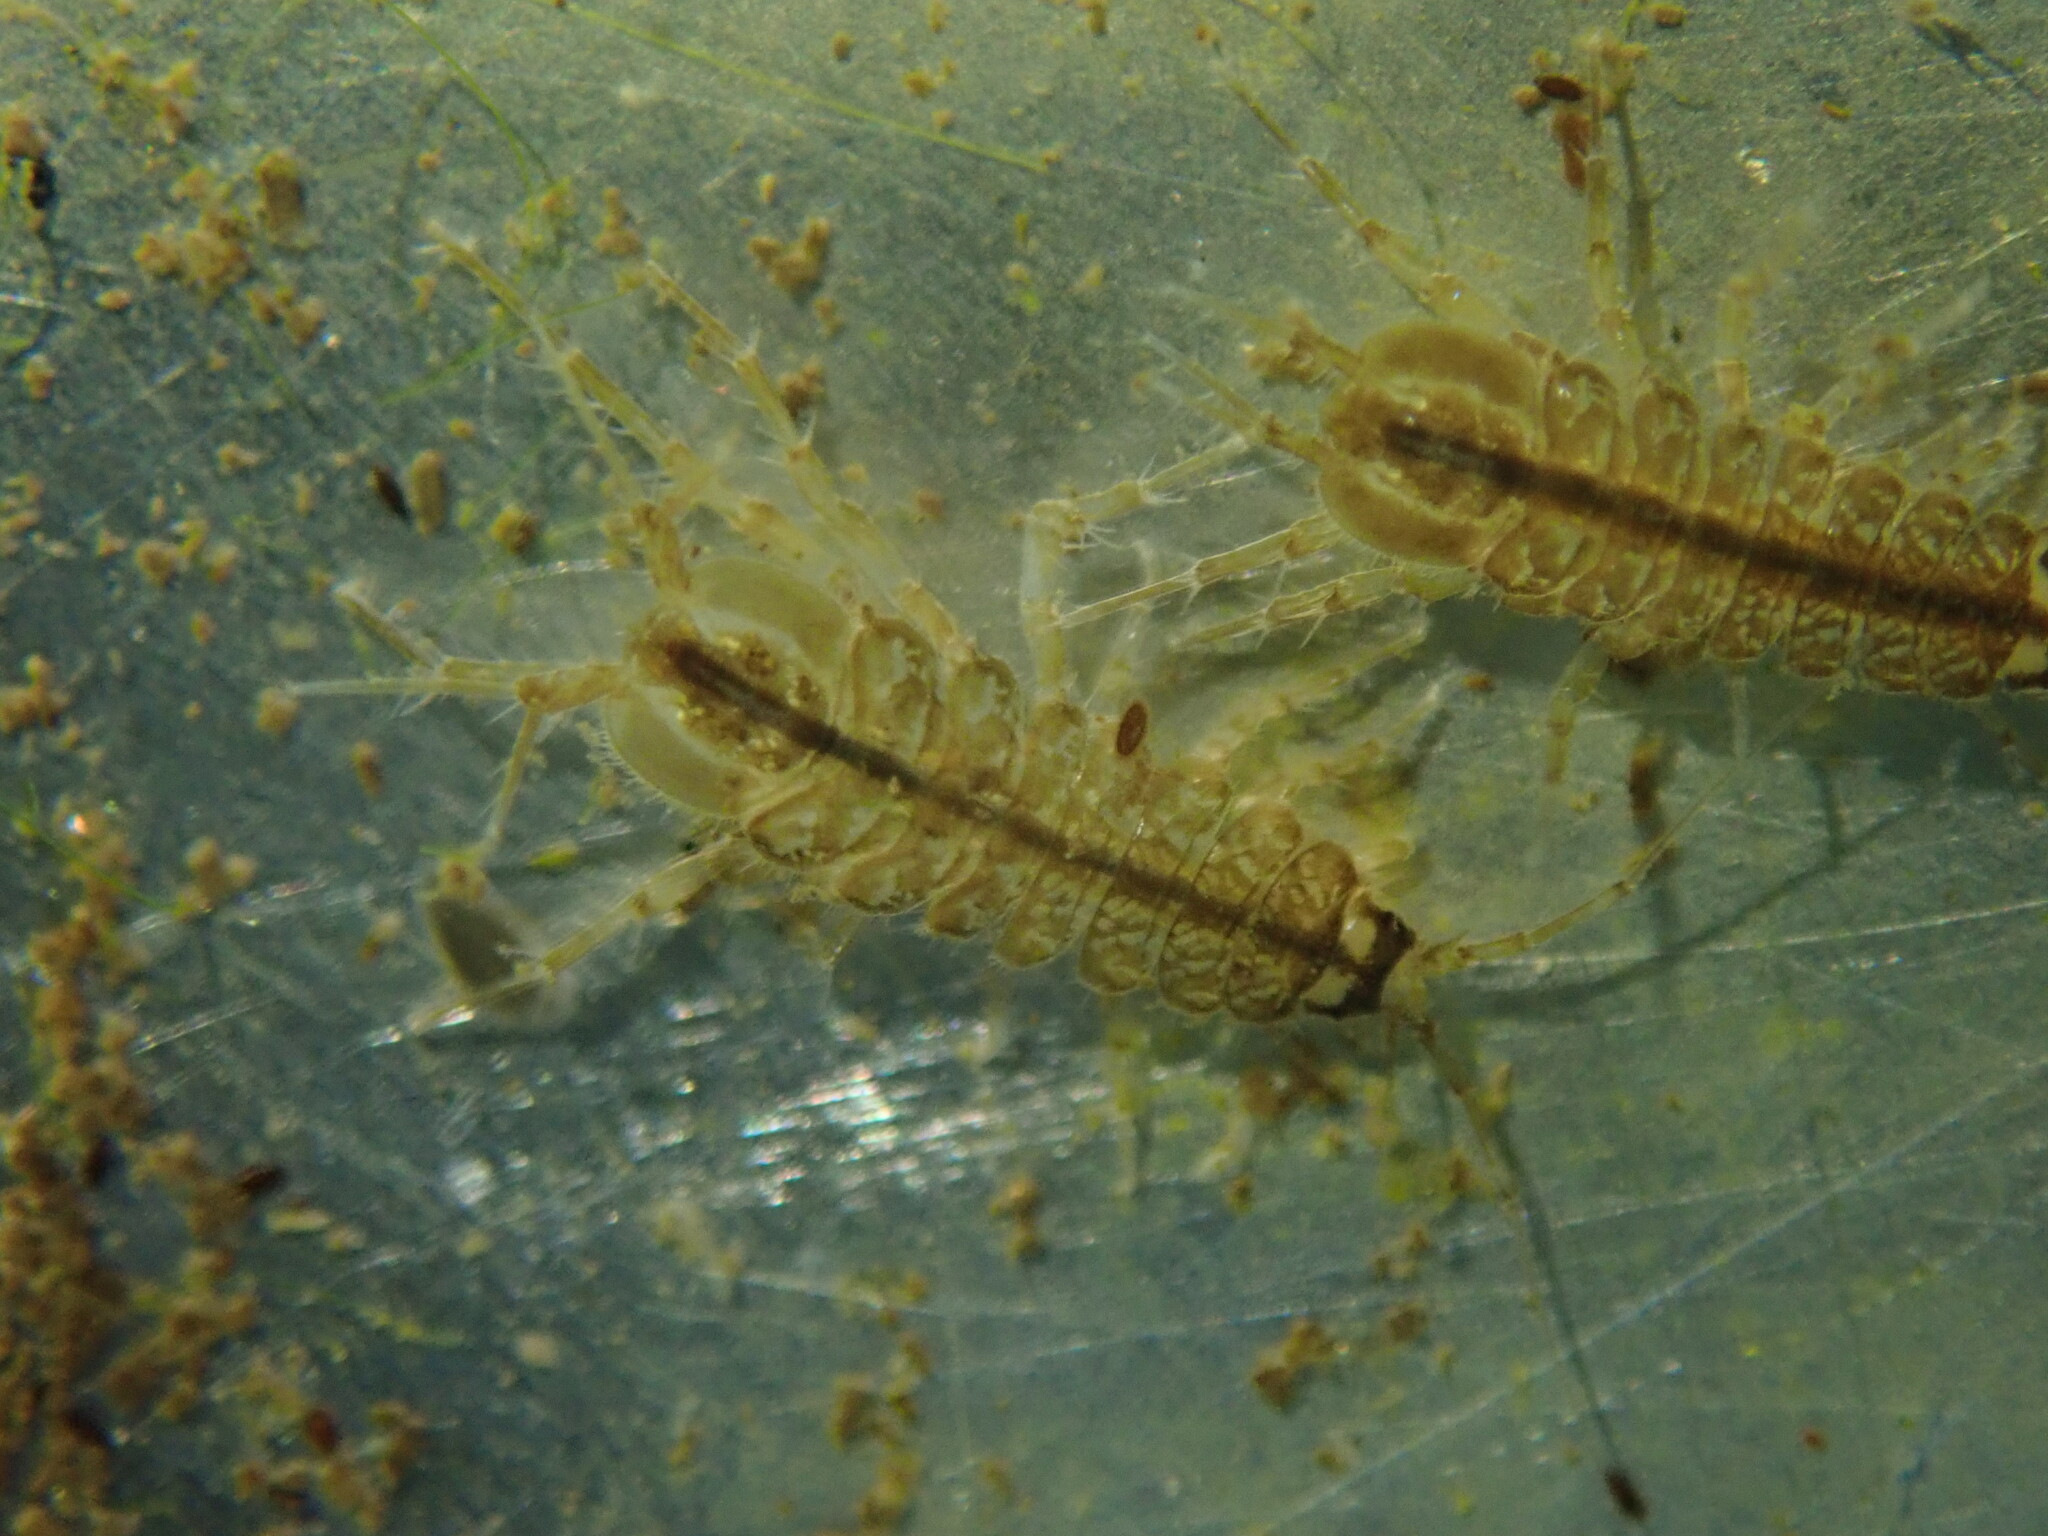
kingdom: Animalia
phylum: Arthropoda
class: Malacostraca
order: Isopoda
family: Asellidae
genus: Asellus
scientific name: Asellus aquaticus
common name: Water hog lice/slaters
